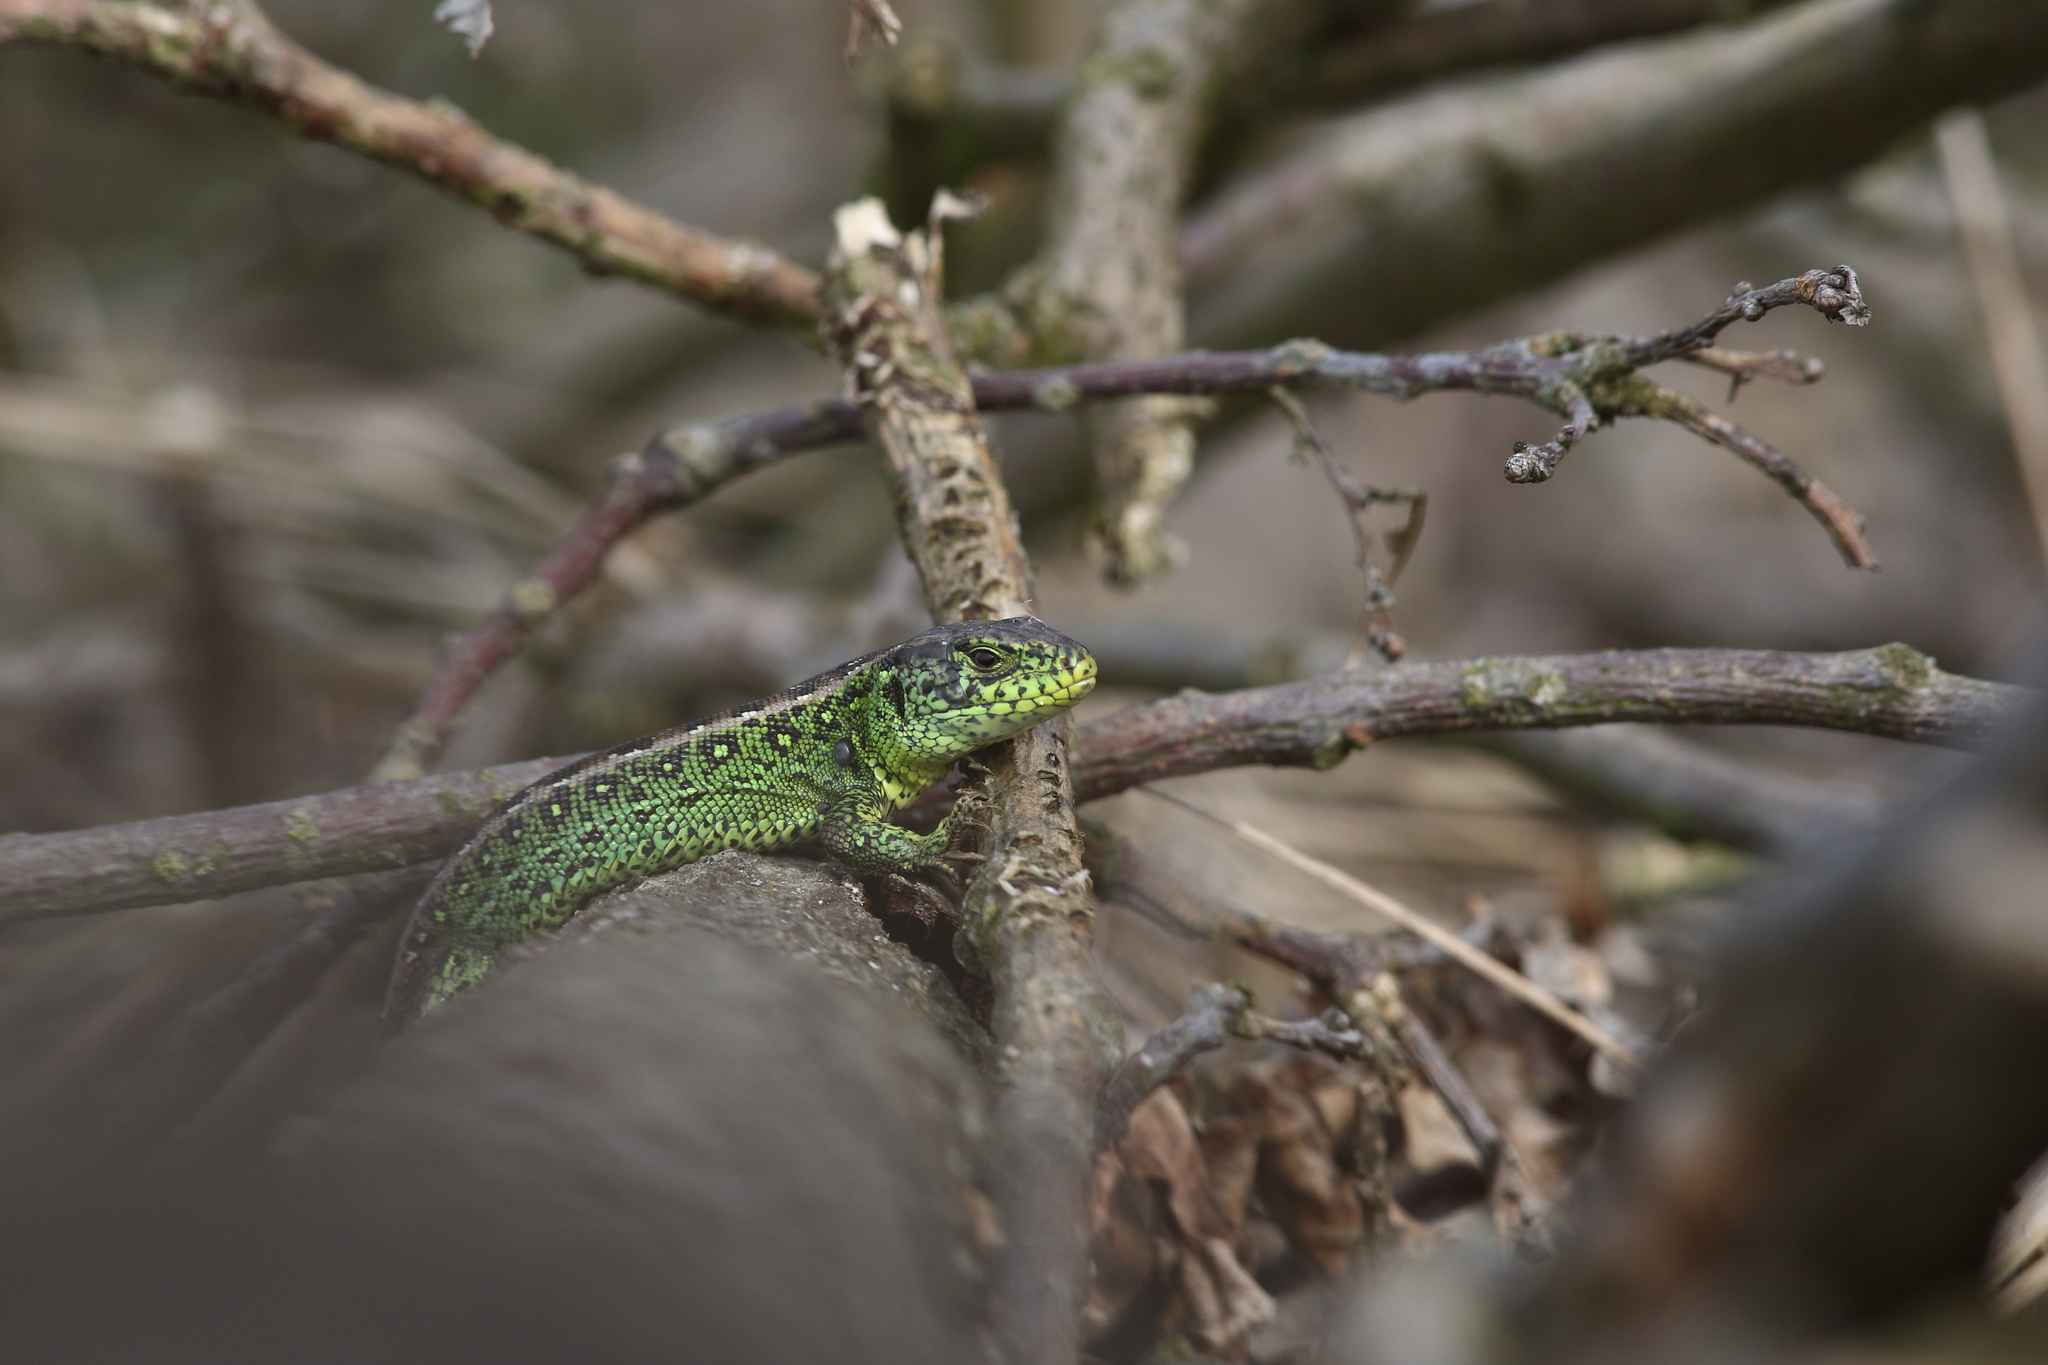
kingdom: Animalia
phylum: Chordata
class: Squamata
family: Lacertidae
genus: Lacerta
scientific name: Lacerta agilis
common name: Sand lizard
